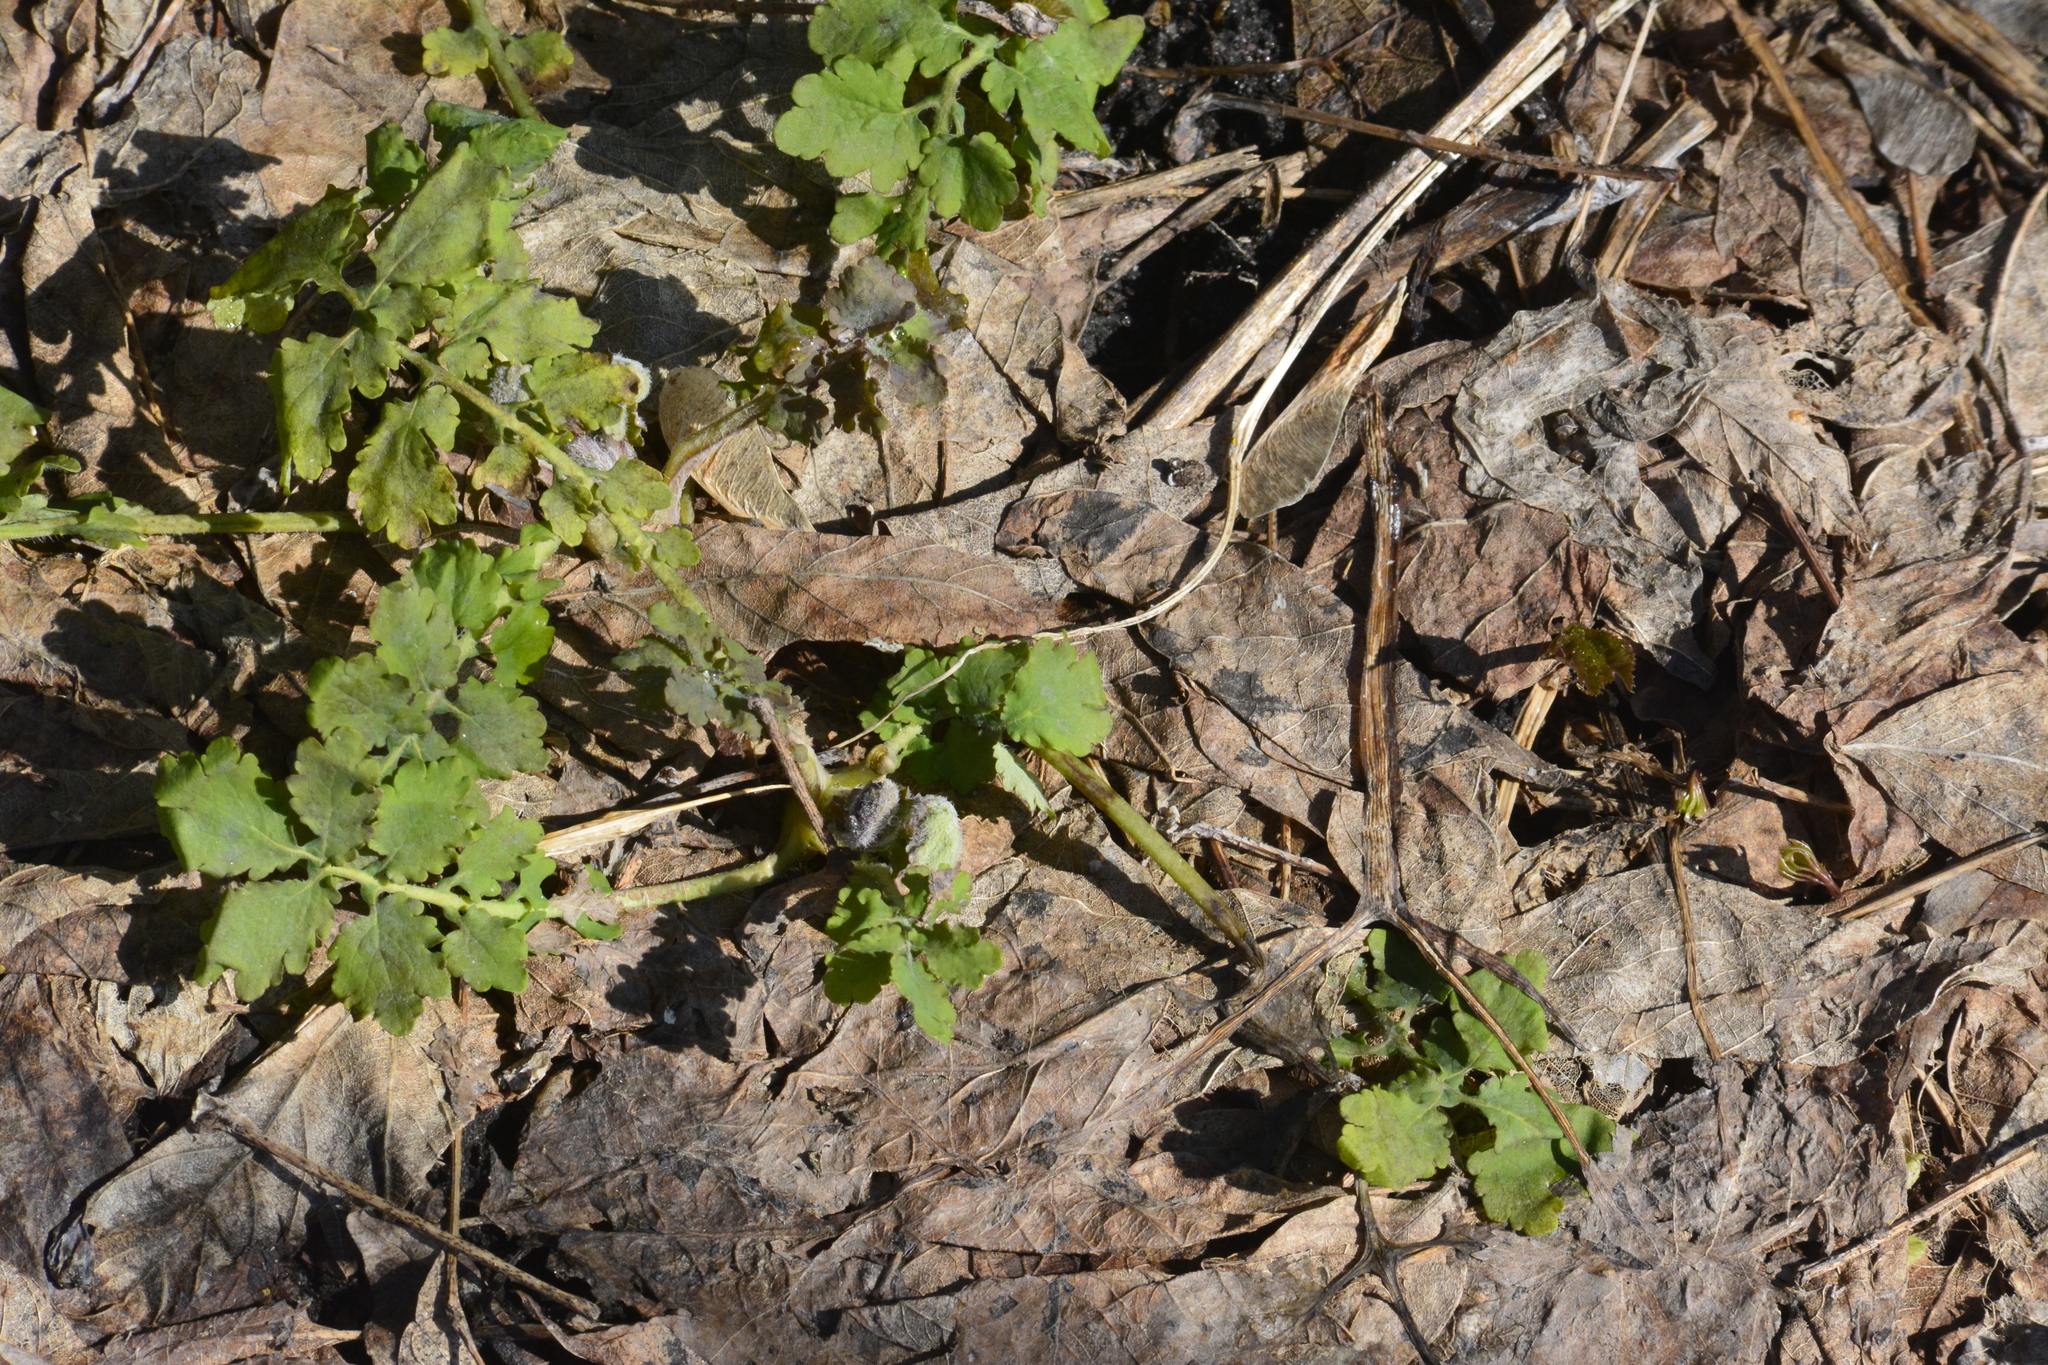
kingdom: Plantae
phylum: Tracheophyta
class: Magnoliopsida
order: Ranunculales
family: Papaveraceae
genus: Chelidonium
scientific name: Chelidonium majus
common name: Greater celandine
